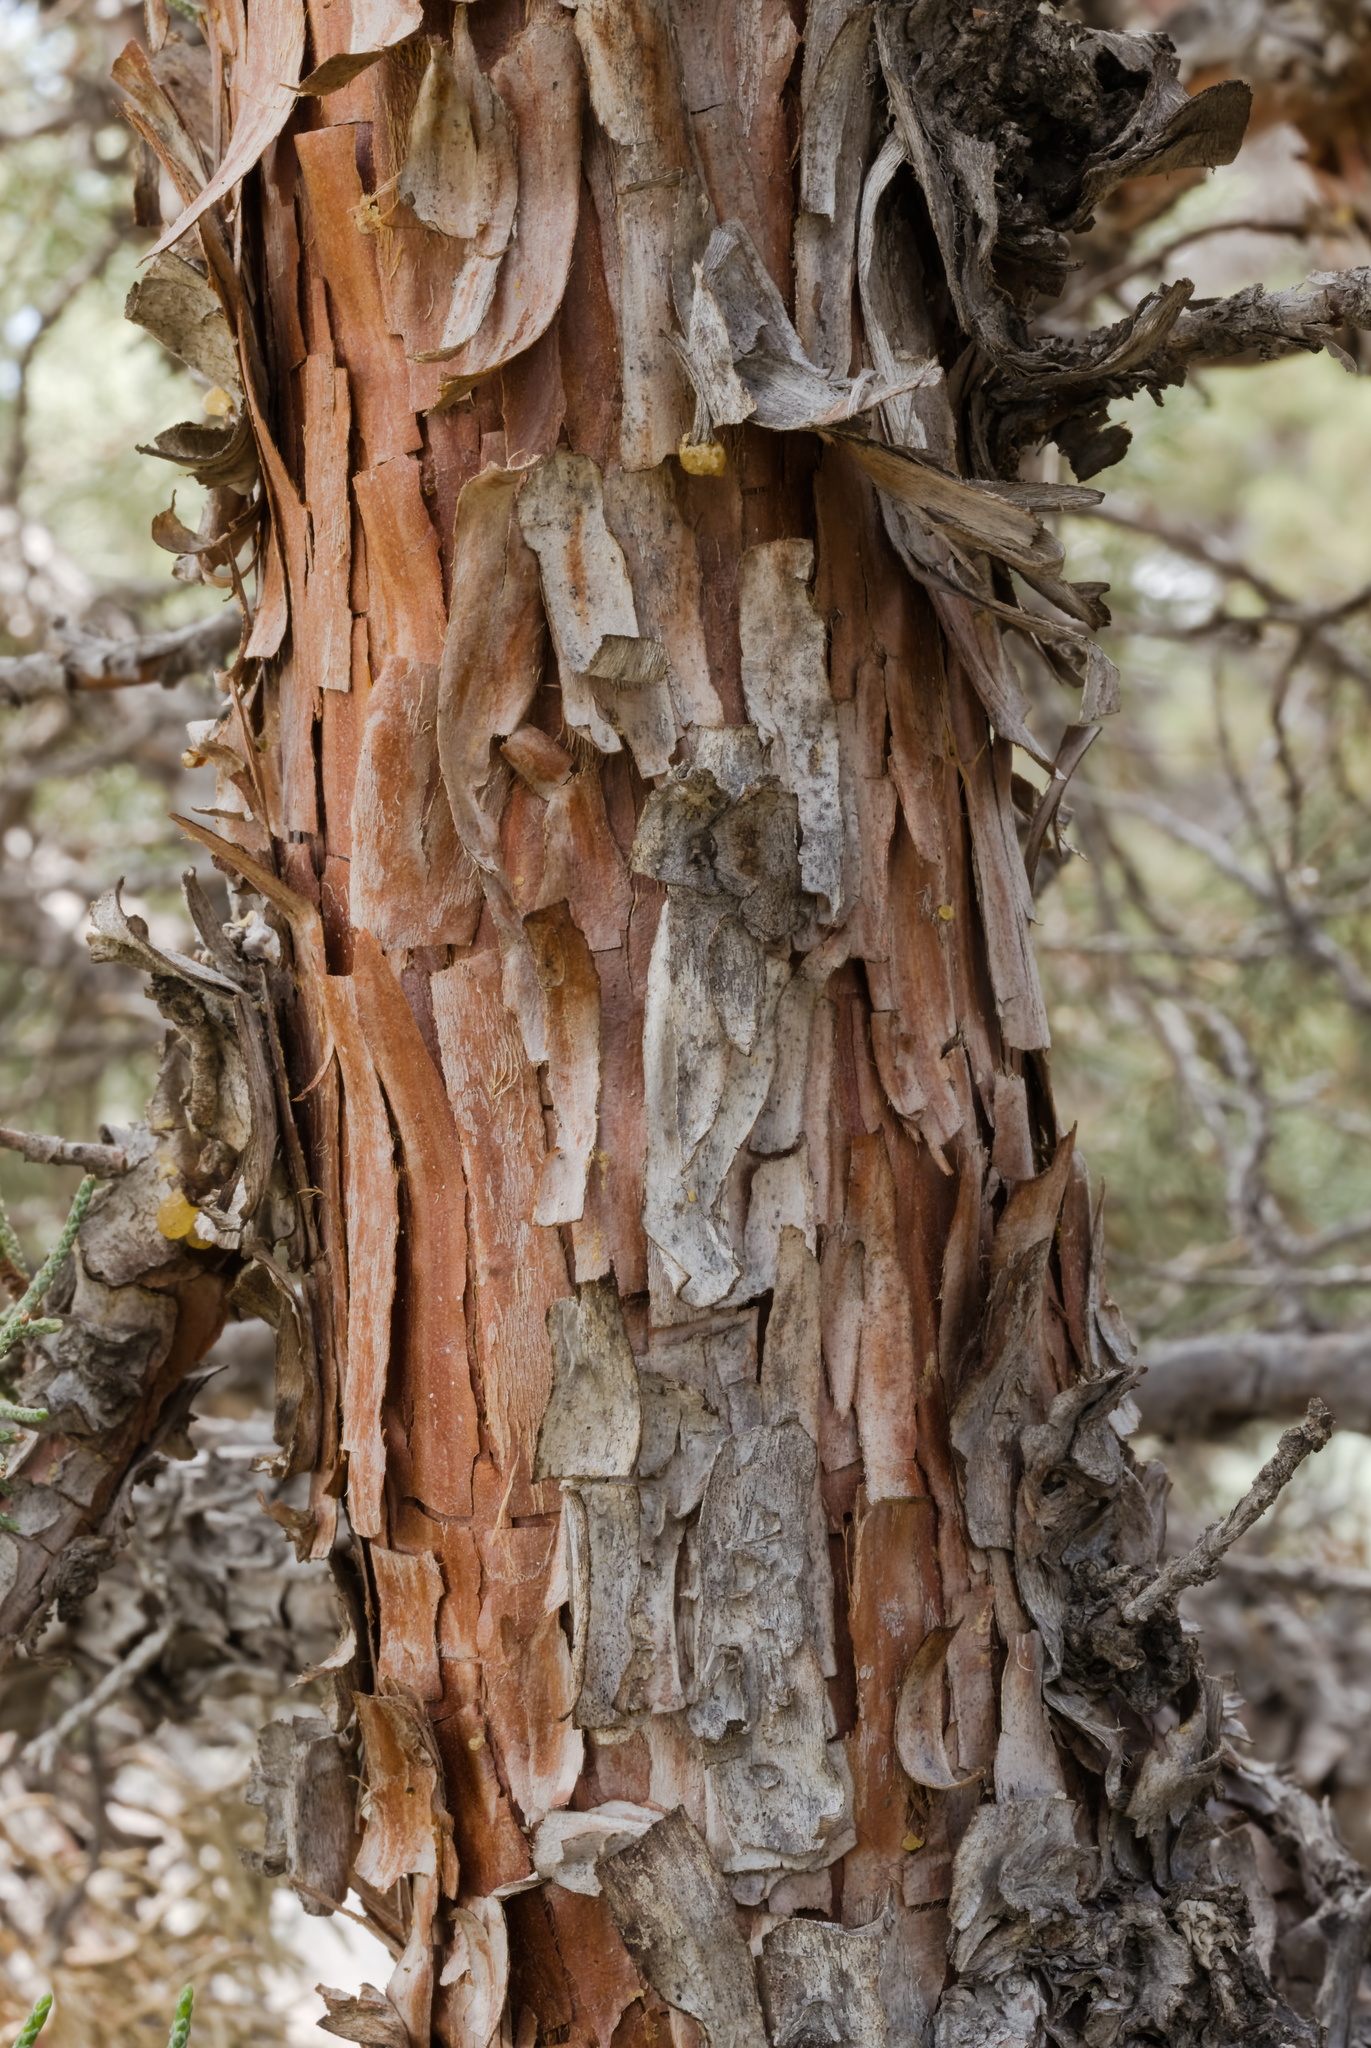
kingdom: Plantae
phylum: Tracheophyta
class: Pinopsida
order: Pinales
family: Cupressaceae
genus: Juniperus
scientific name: Juniperus occidentalis
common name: Western juniper
